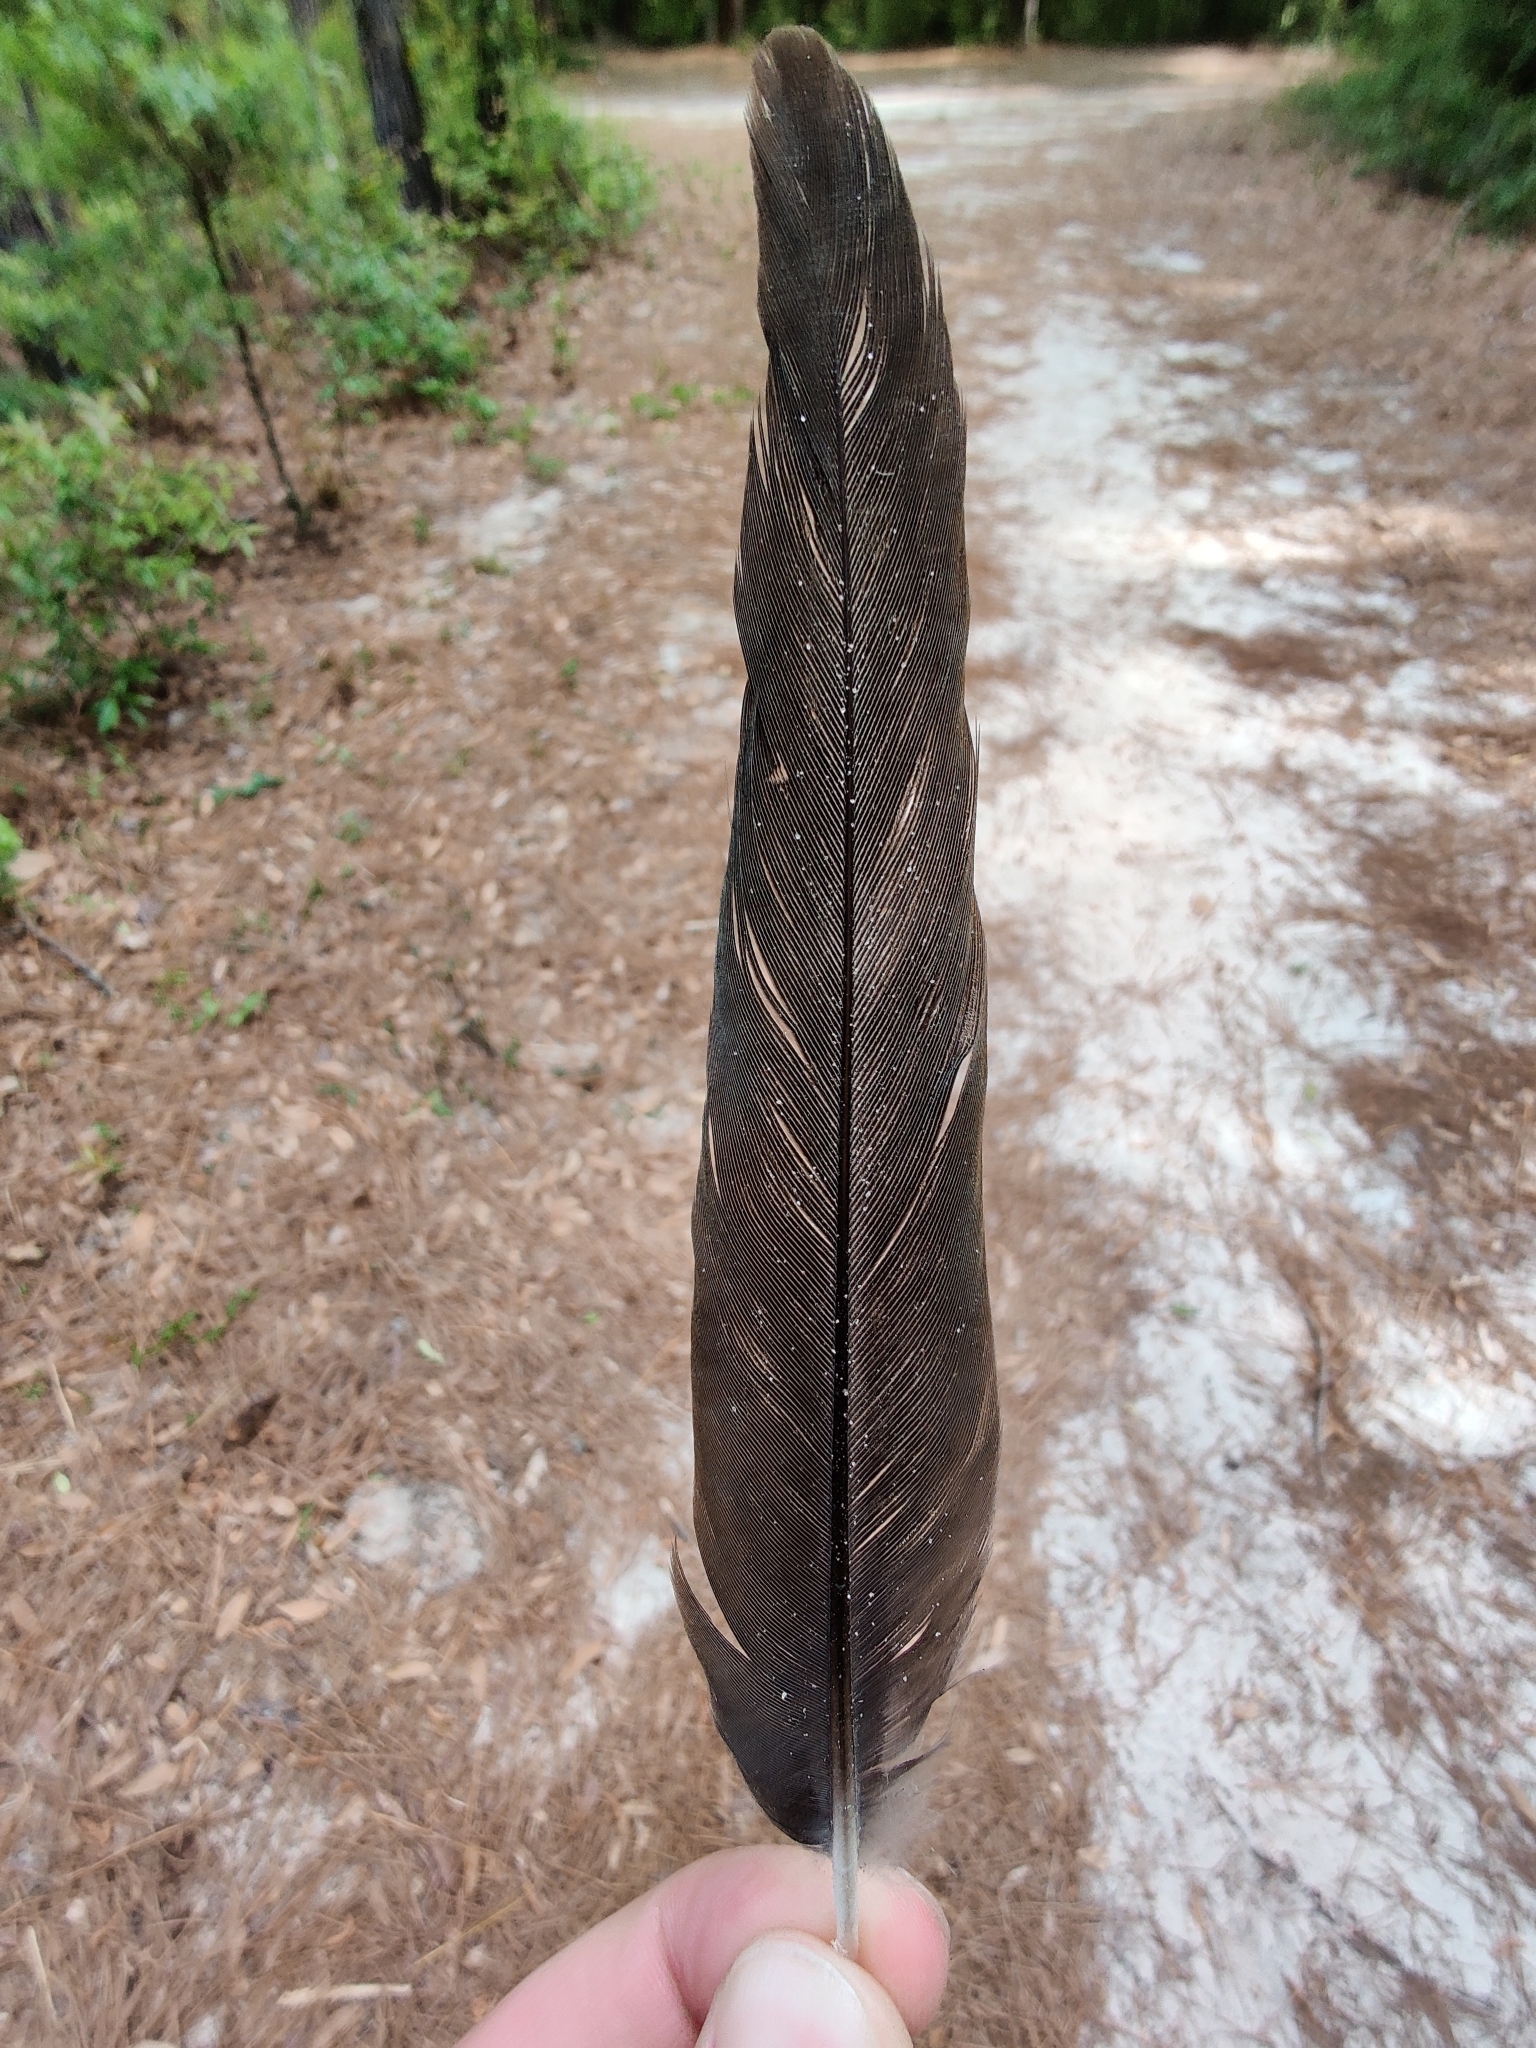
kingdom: Animalia
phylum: Chordata
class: Aves
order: Columbiformes
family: Columbidae
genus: Zenaida
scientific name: Zenaida macroura
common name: Mourning dove
